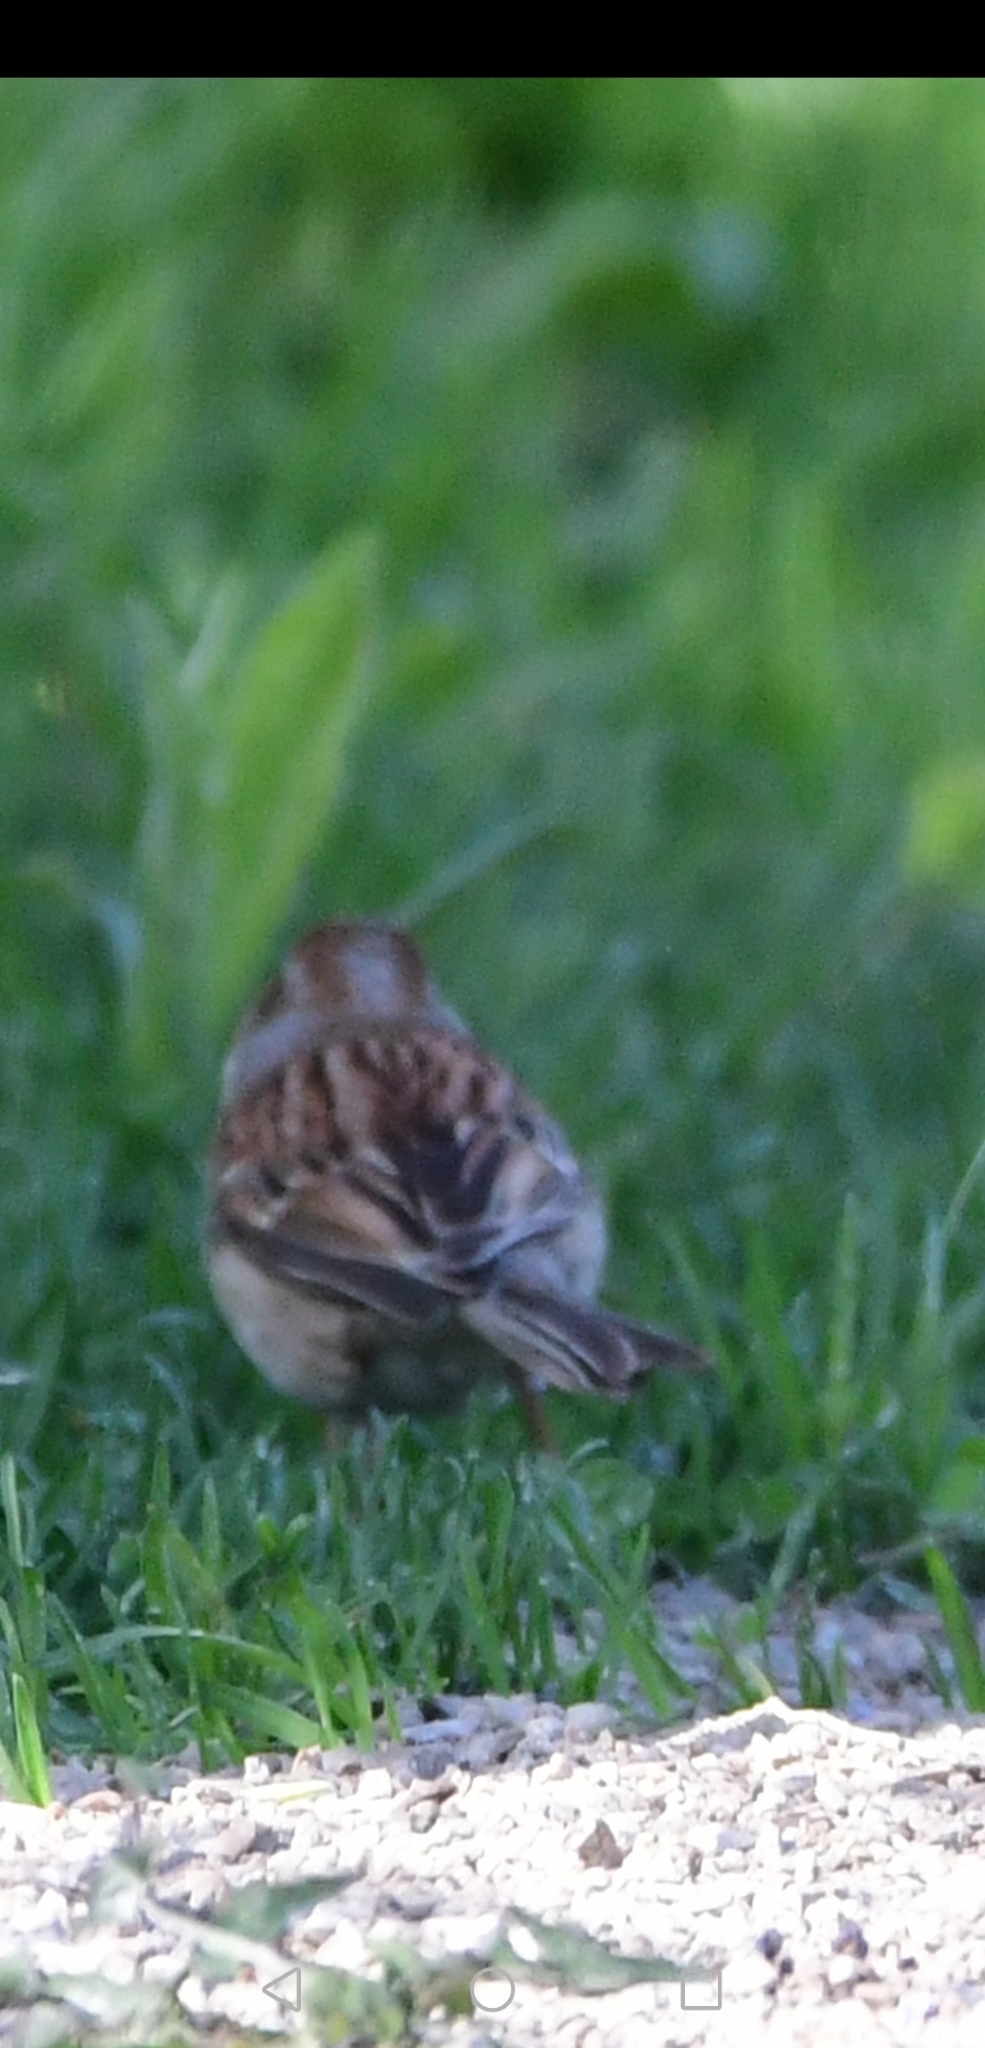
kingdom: Animalia
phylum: Chordata
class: Aves
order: Passeriformes
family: Passerellidae
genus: Spizella
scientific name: Spizella pusilla
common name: Field sparrow
